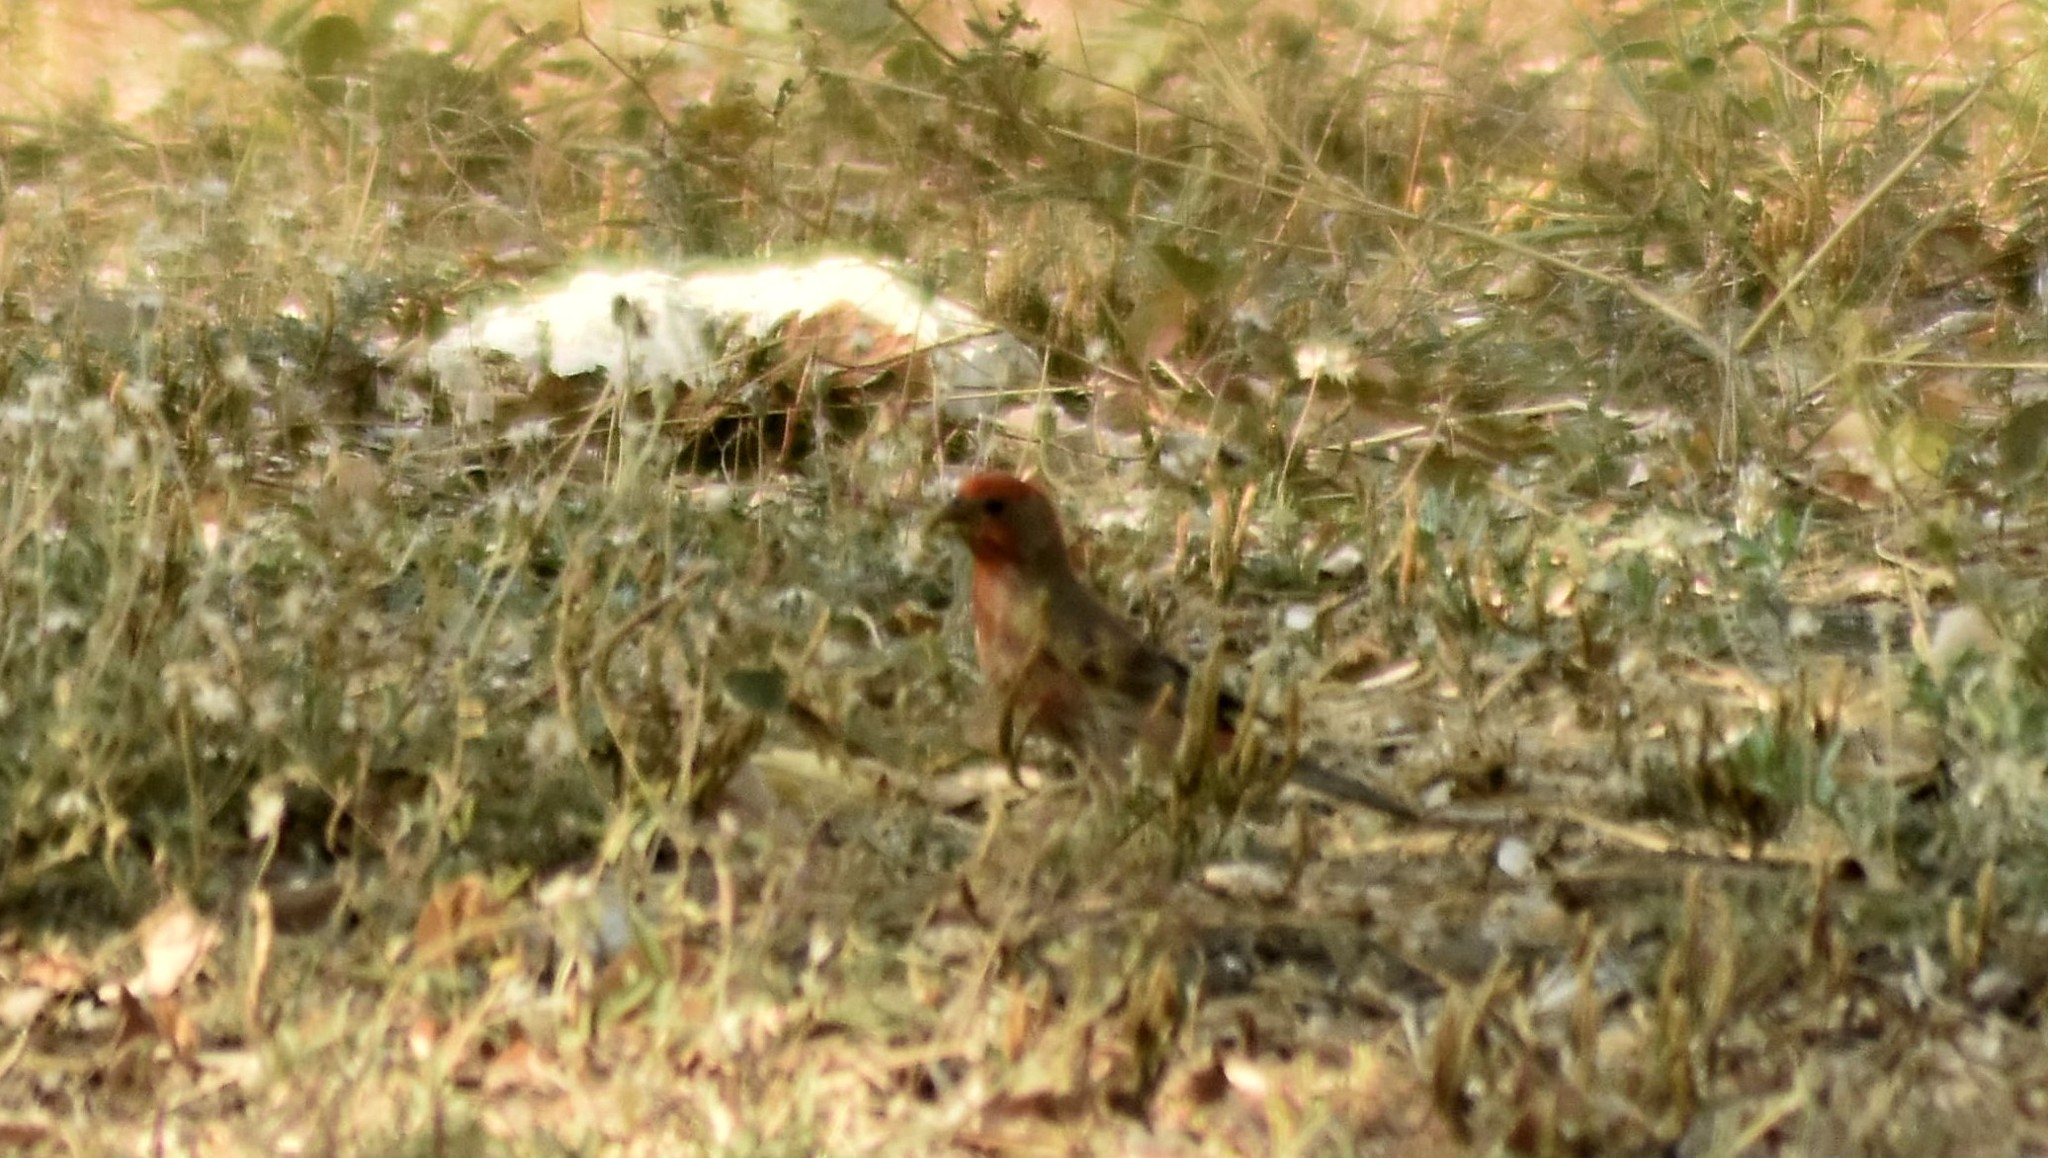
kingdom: Animalia
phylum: Chordata
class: Aves
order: Passeriformes
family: Fringillidae
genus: Haemorhous
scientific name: Haemorhous mexicanus
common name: House finch
